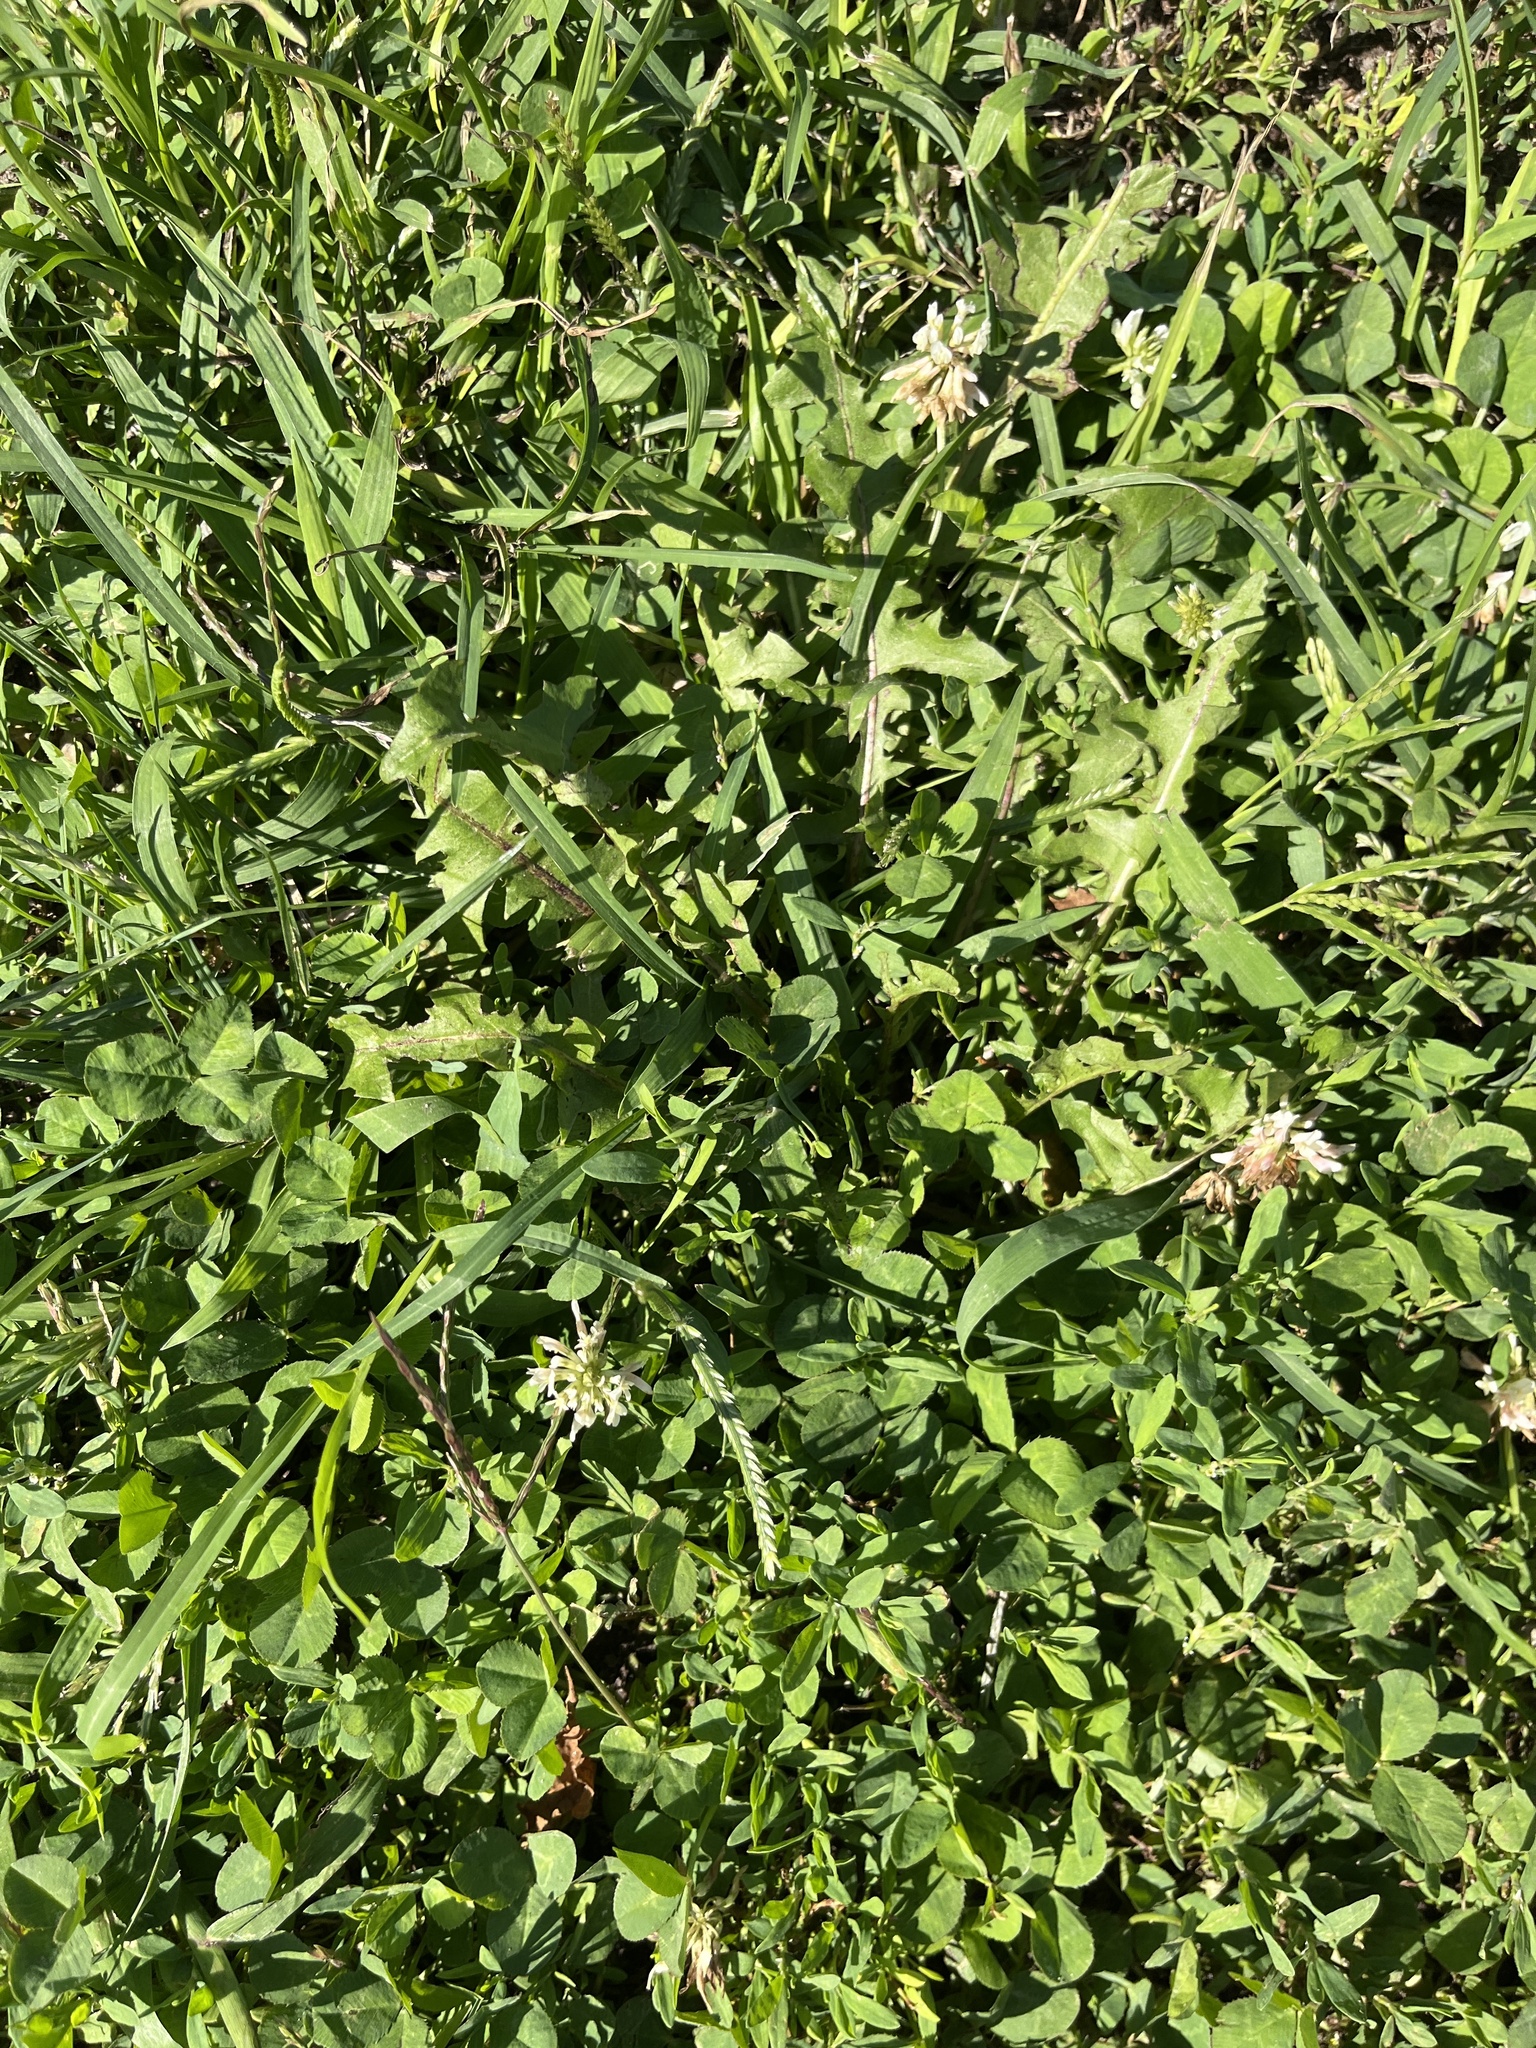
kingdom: Plantae
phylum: Tracheophyta
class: Magnoliopsida
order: Fabales
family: Fabaceae
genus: Trifolium
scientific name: Trifolium repens
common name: White clover
